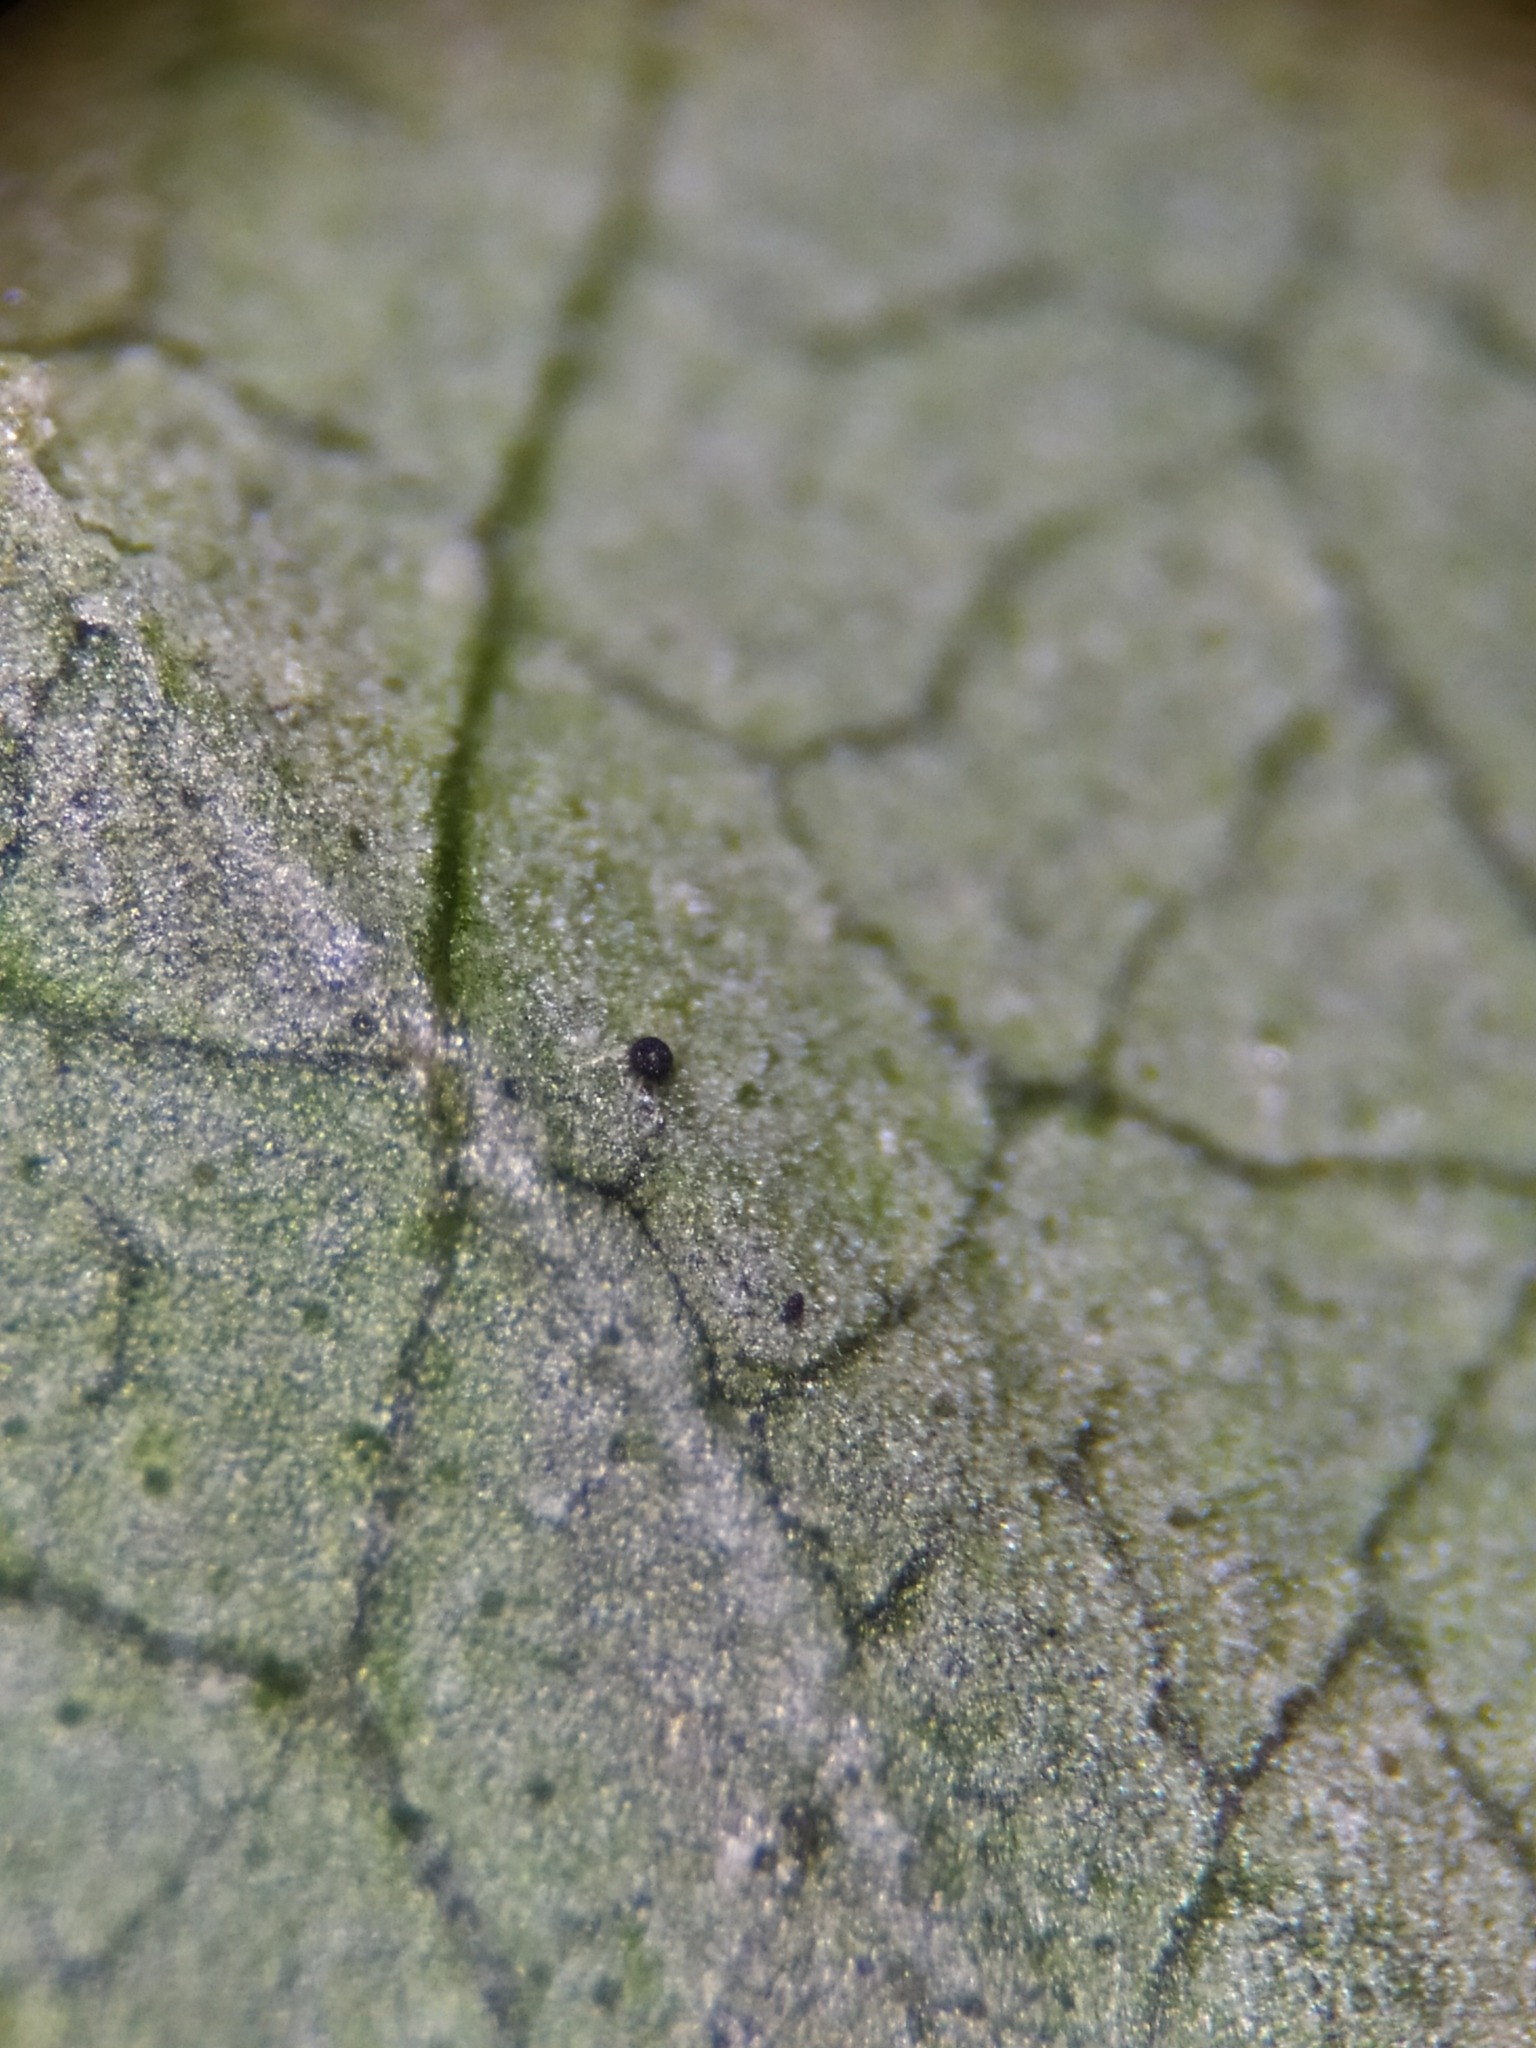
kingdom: Fungi
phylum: Ascomycota
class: Leotiomycetes
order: Helotiales
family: Erysiphaceae
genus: Erysiphe
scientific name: Erysiphe syringae-japonicae
